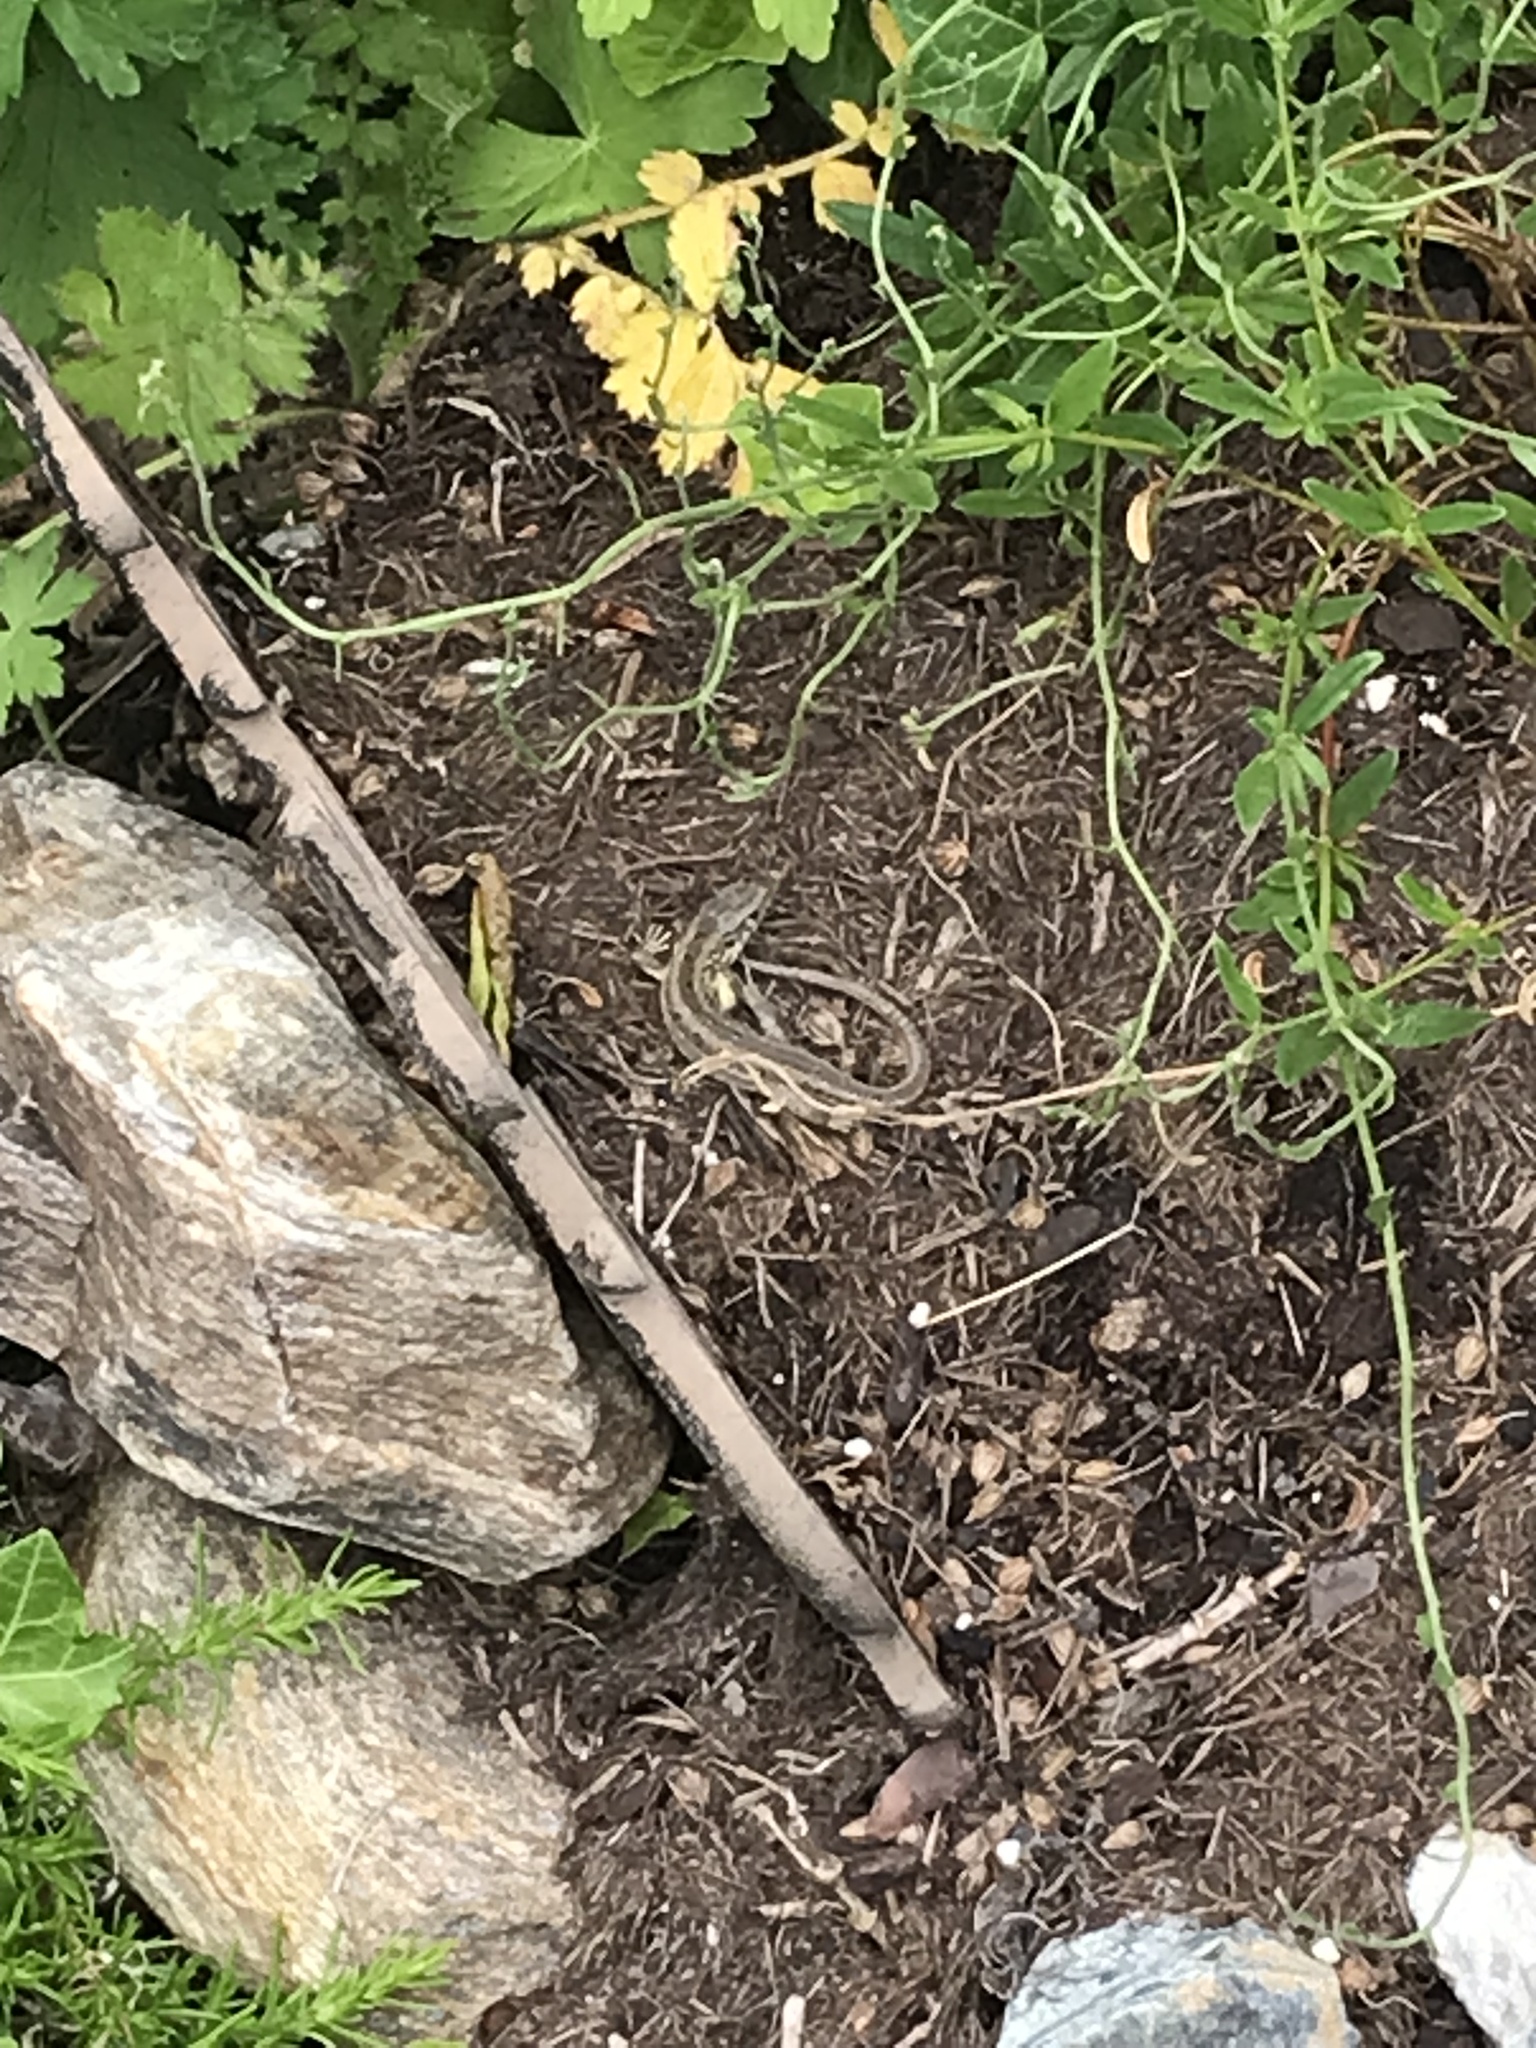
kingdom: Animalia
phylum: Chordata
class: Squamata
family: Lacertidae
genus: Lacerta
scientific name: Lacerta agilis
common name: Sand lizard
